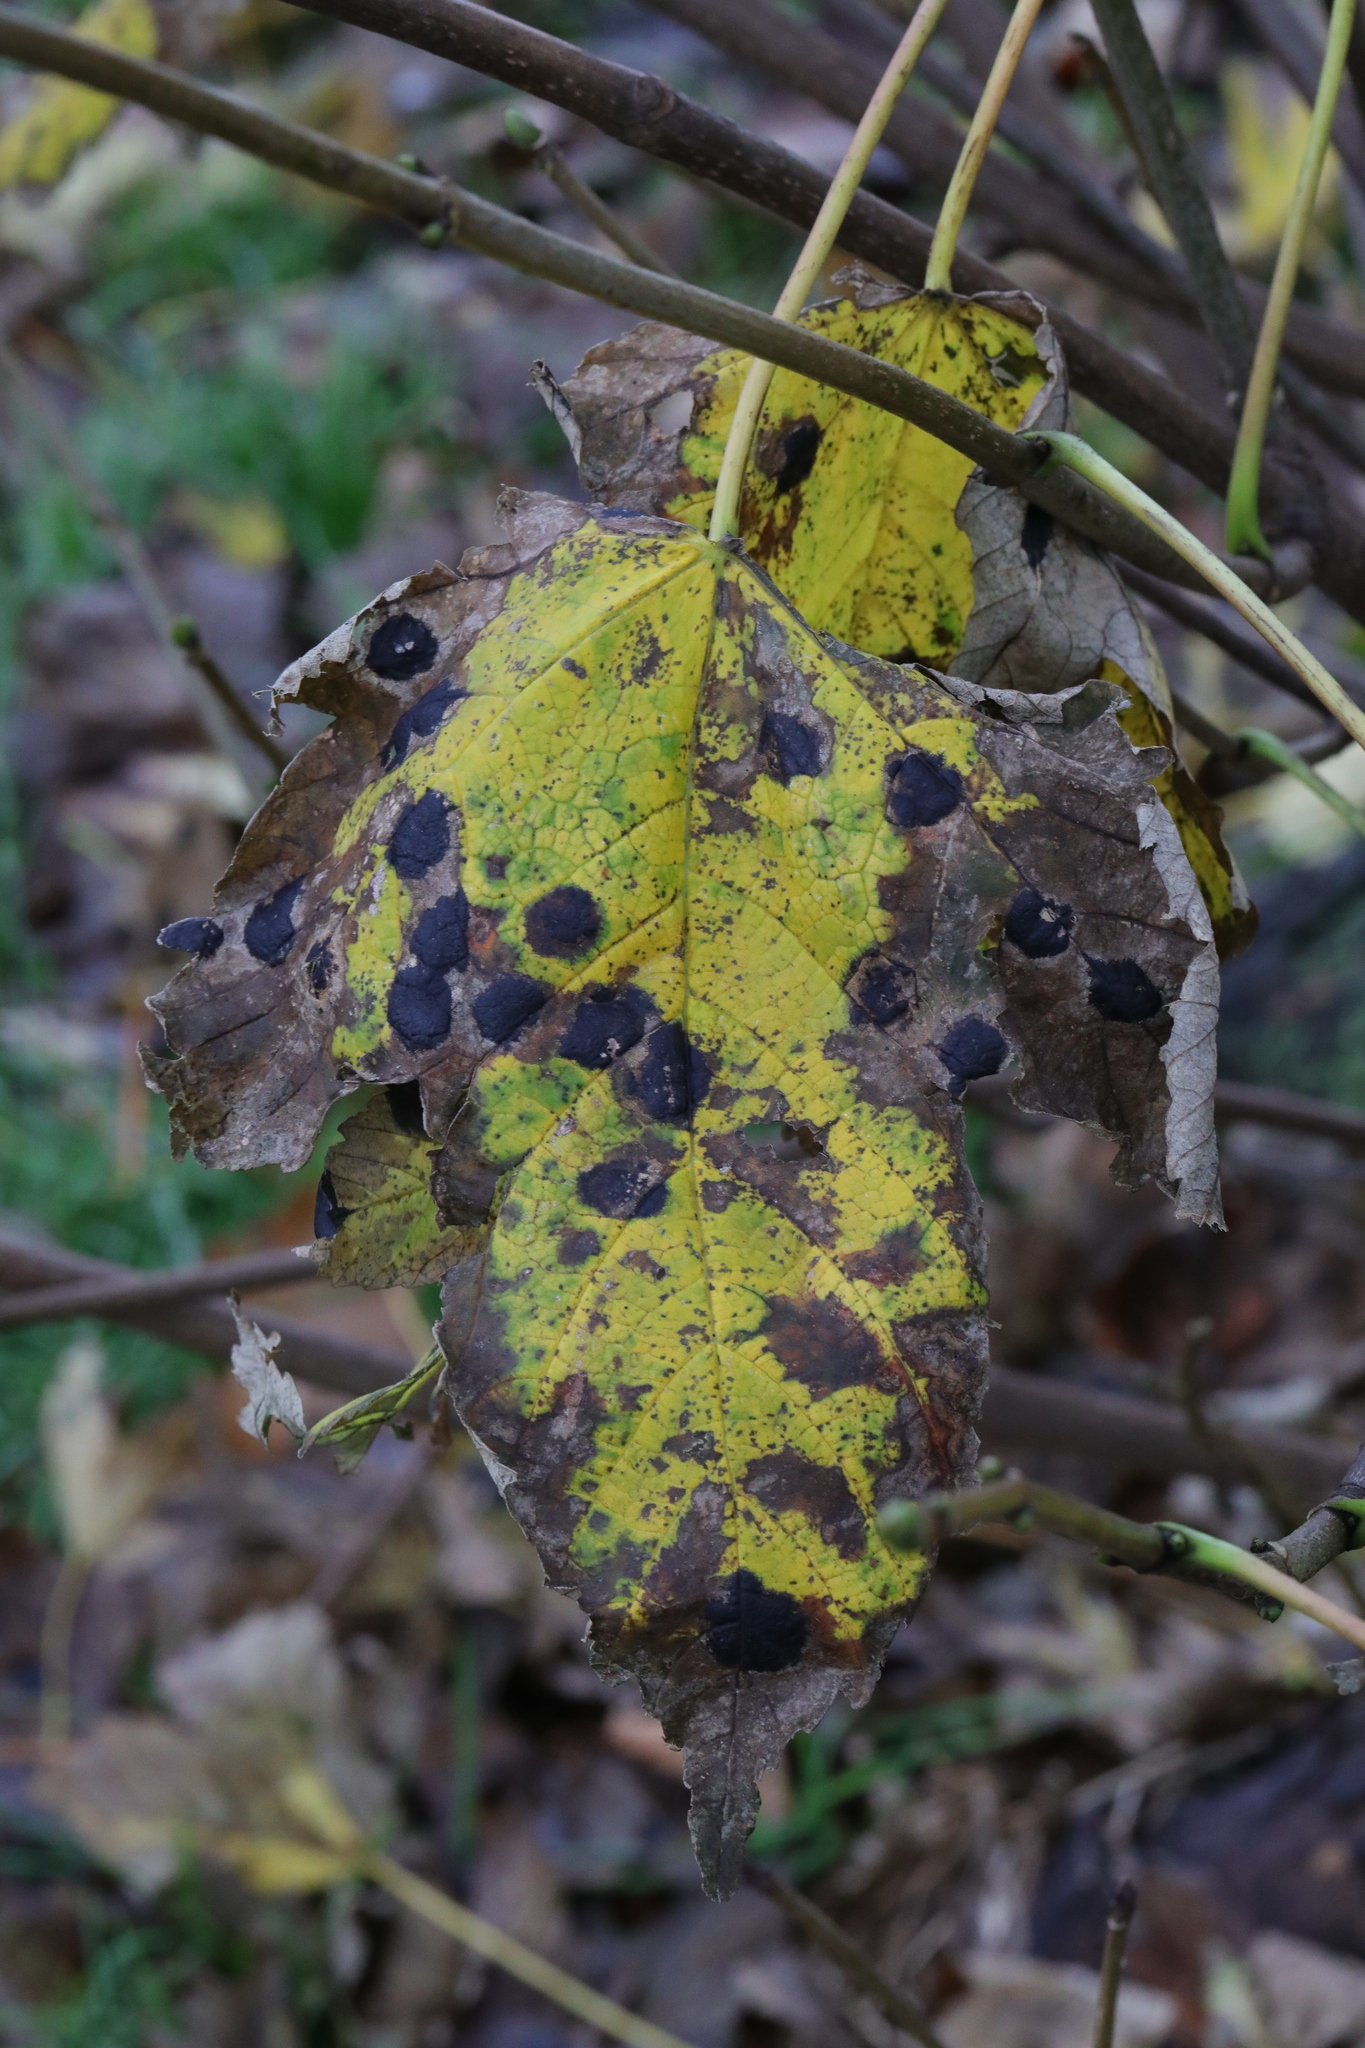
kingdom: Fungi
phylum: Ascomycota
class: Leotiomycetes
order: Rhytismatales
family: Rhytismataceae
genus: Rhytisma
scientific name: Rhytisma acerinum
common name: European tar spot
